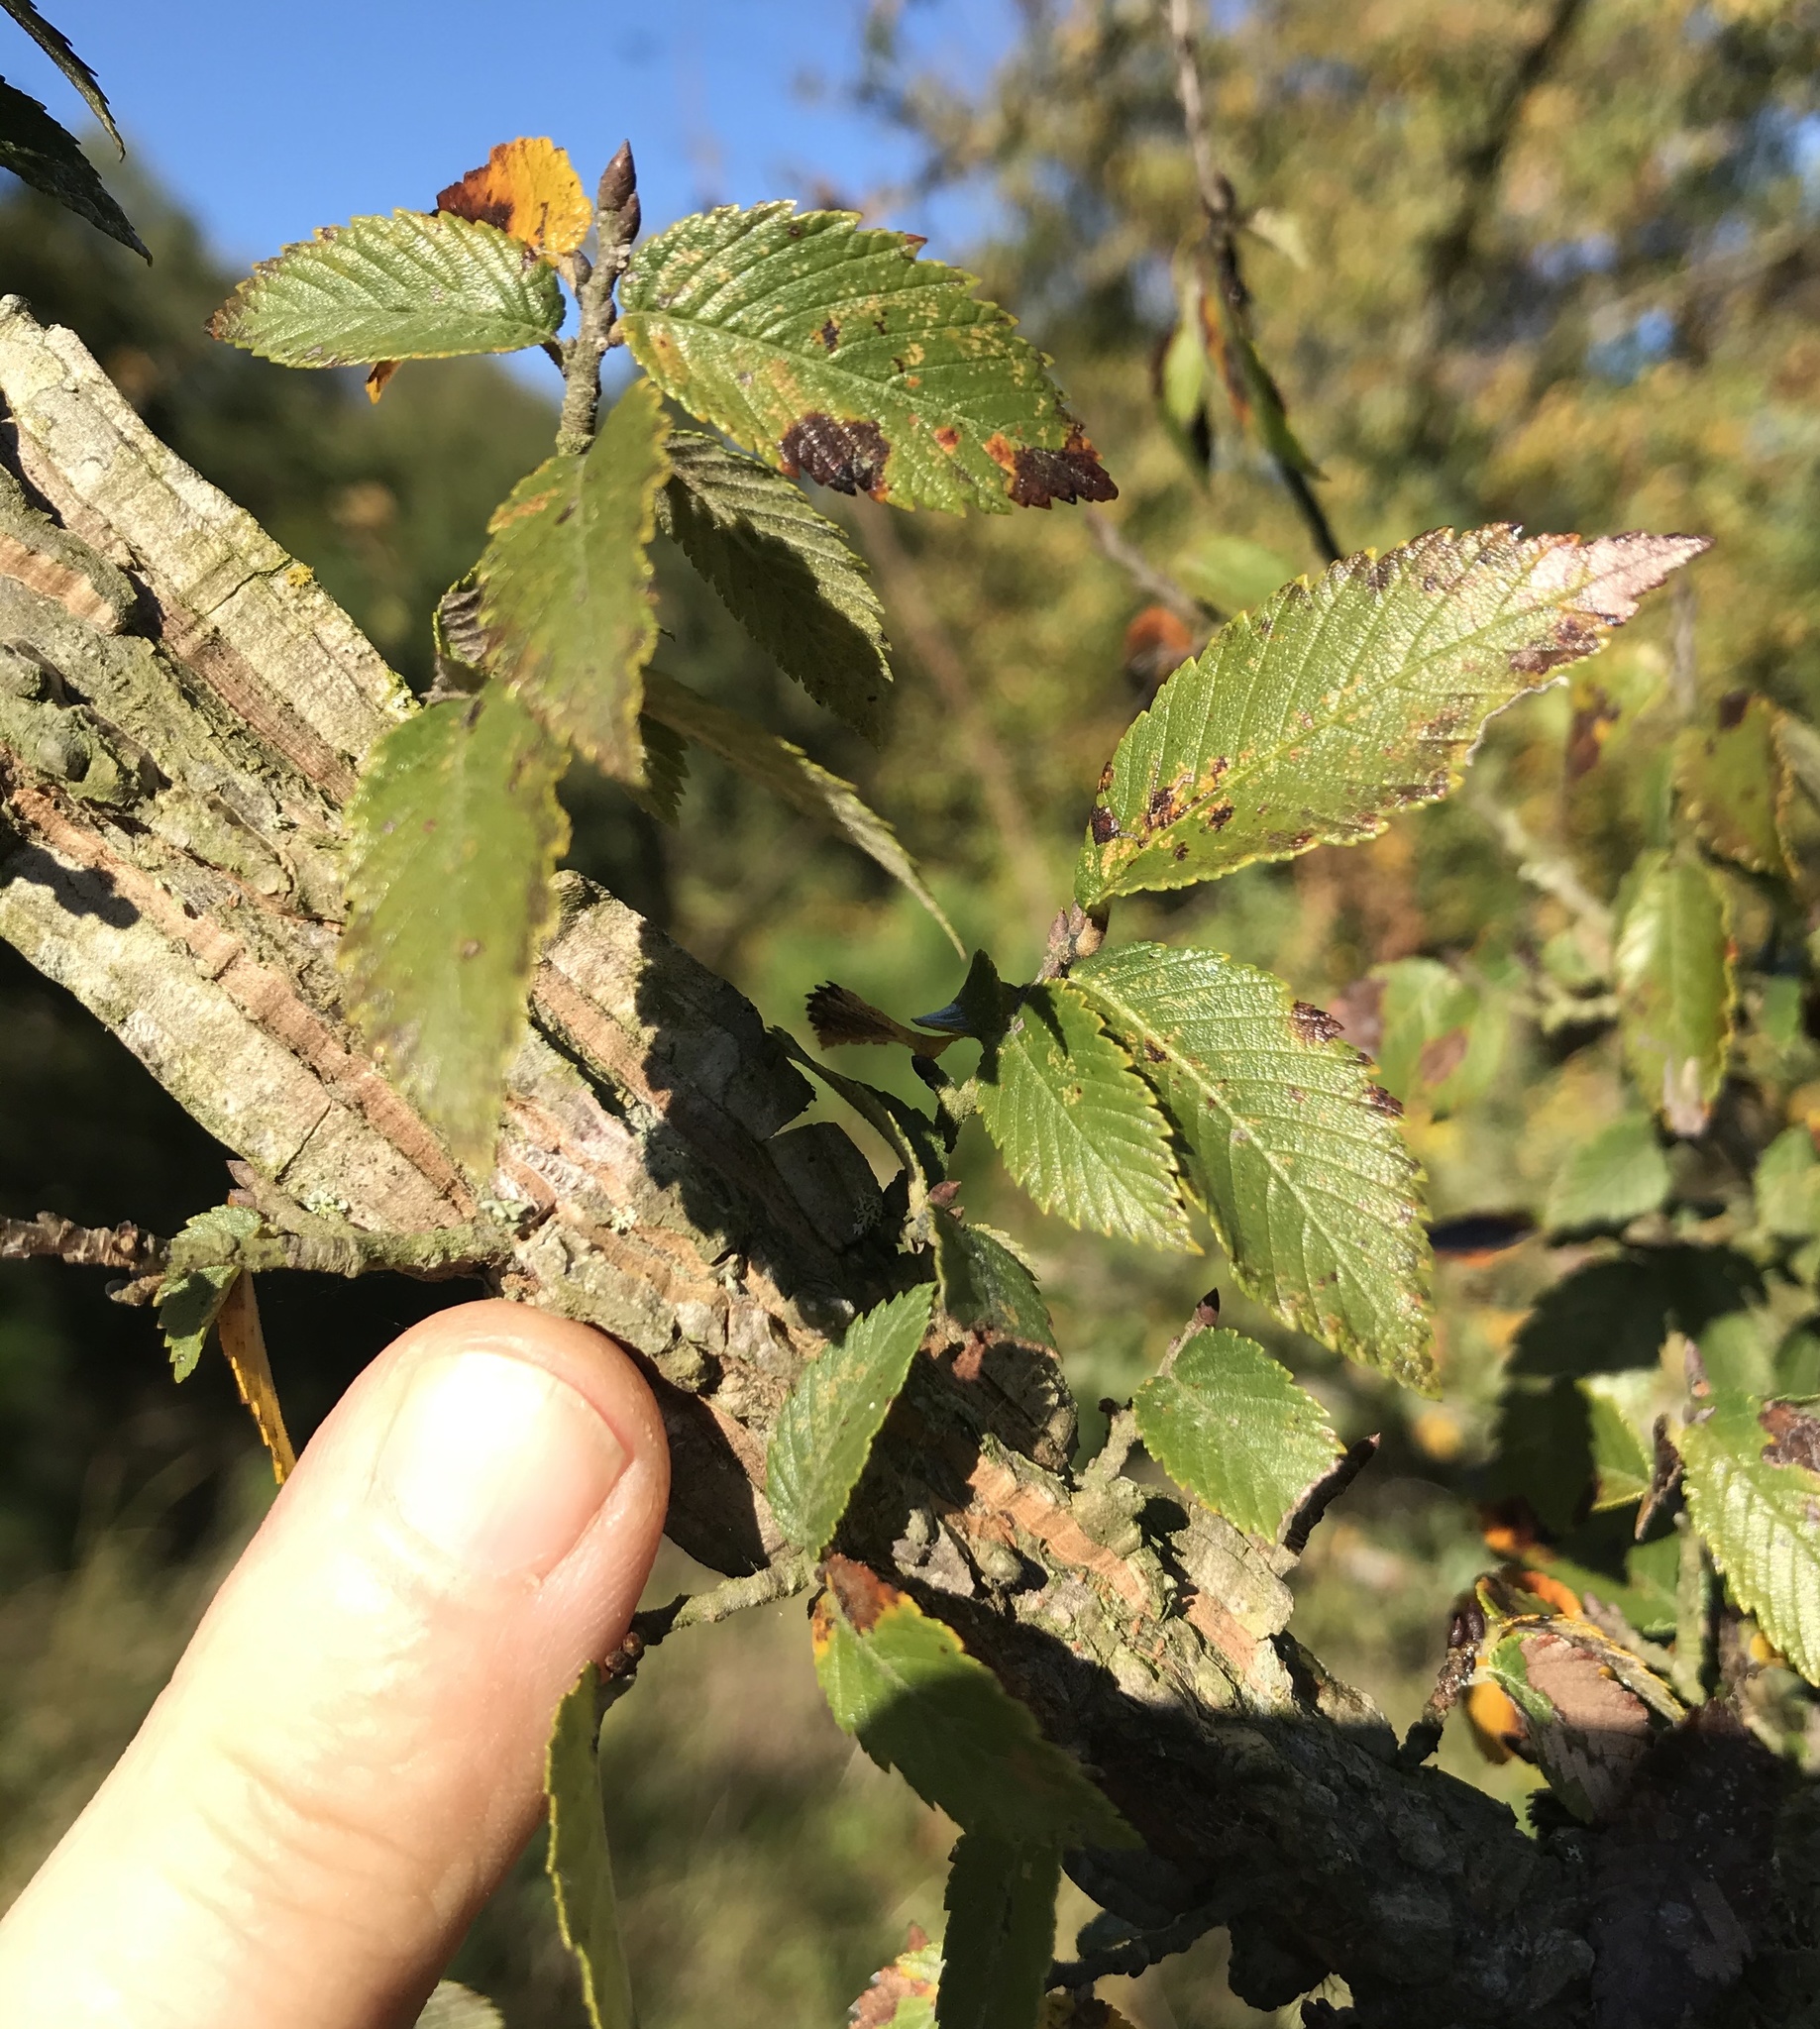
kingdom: Plantae
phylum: Tracheophyta
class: Magnoliopsida
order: Rosales
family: Ulmaceae
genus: Ulmus
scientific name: Ulmus alata
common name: Winged elm
